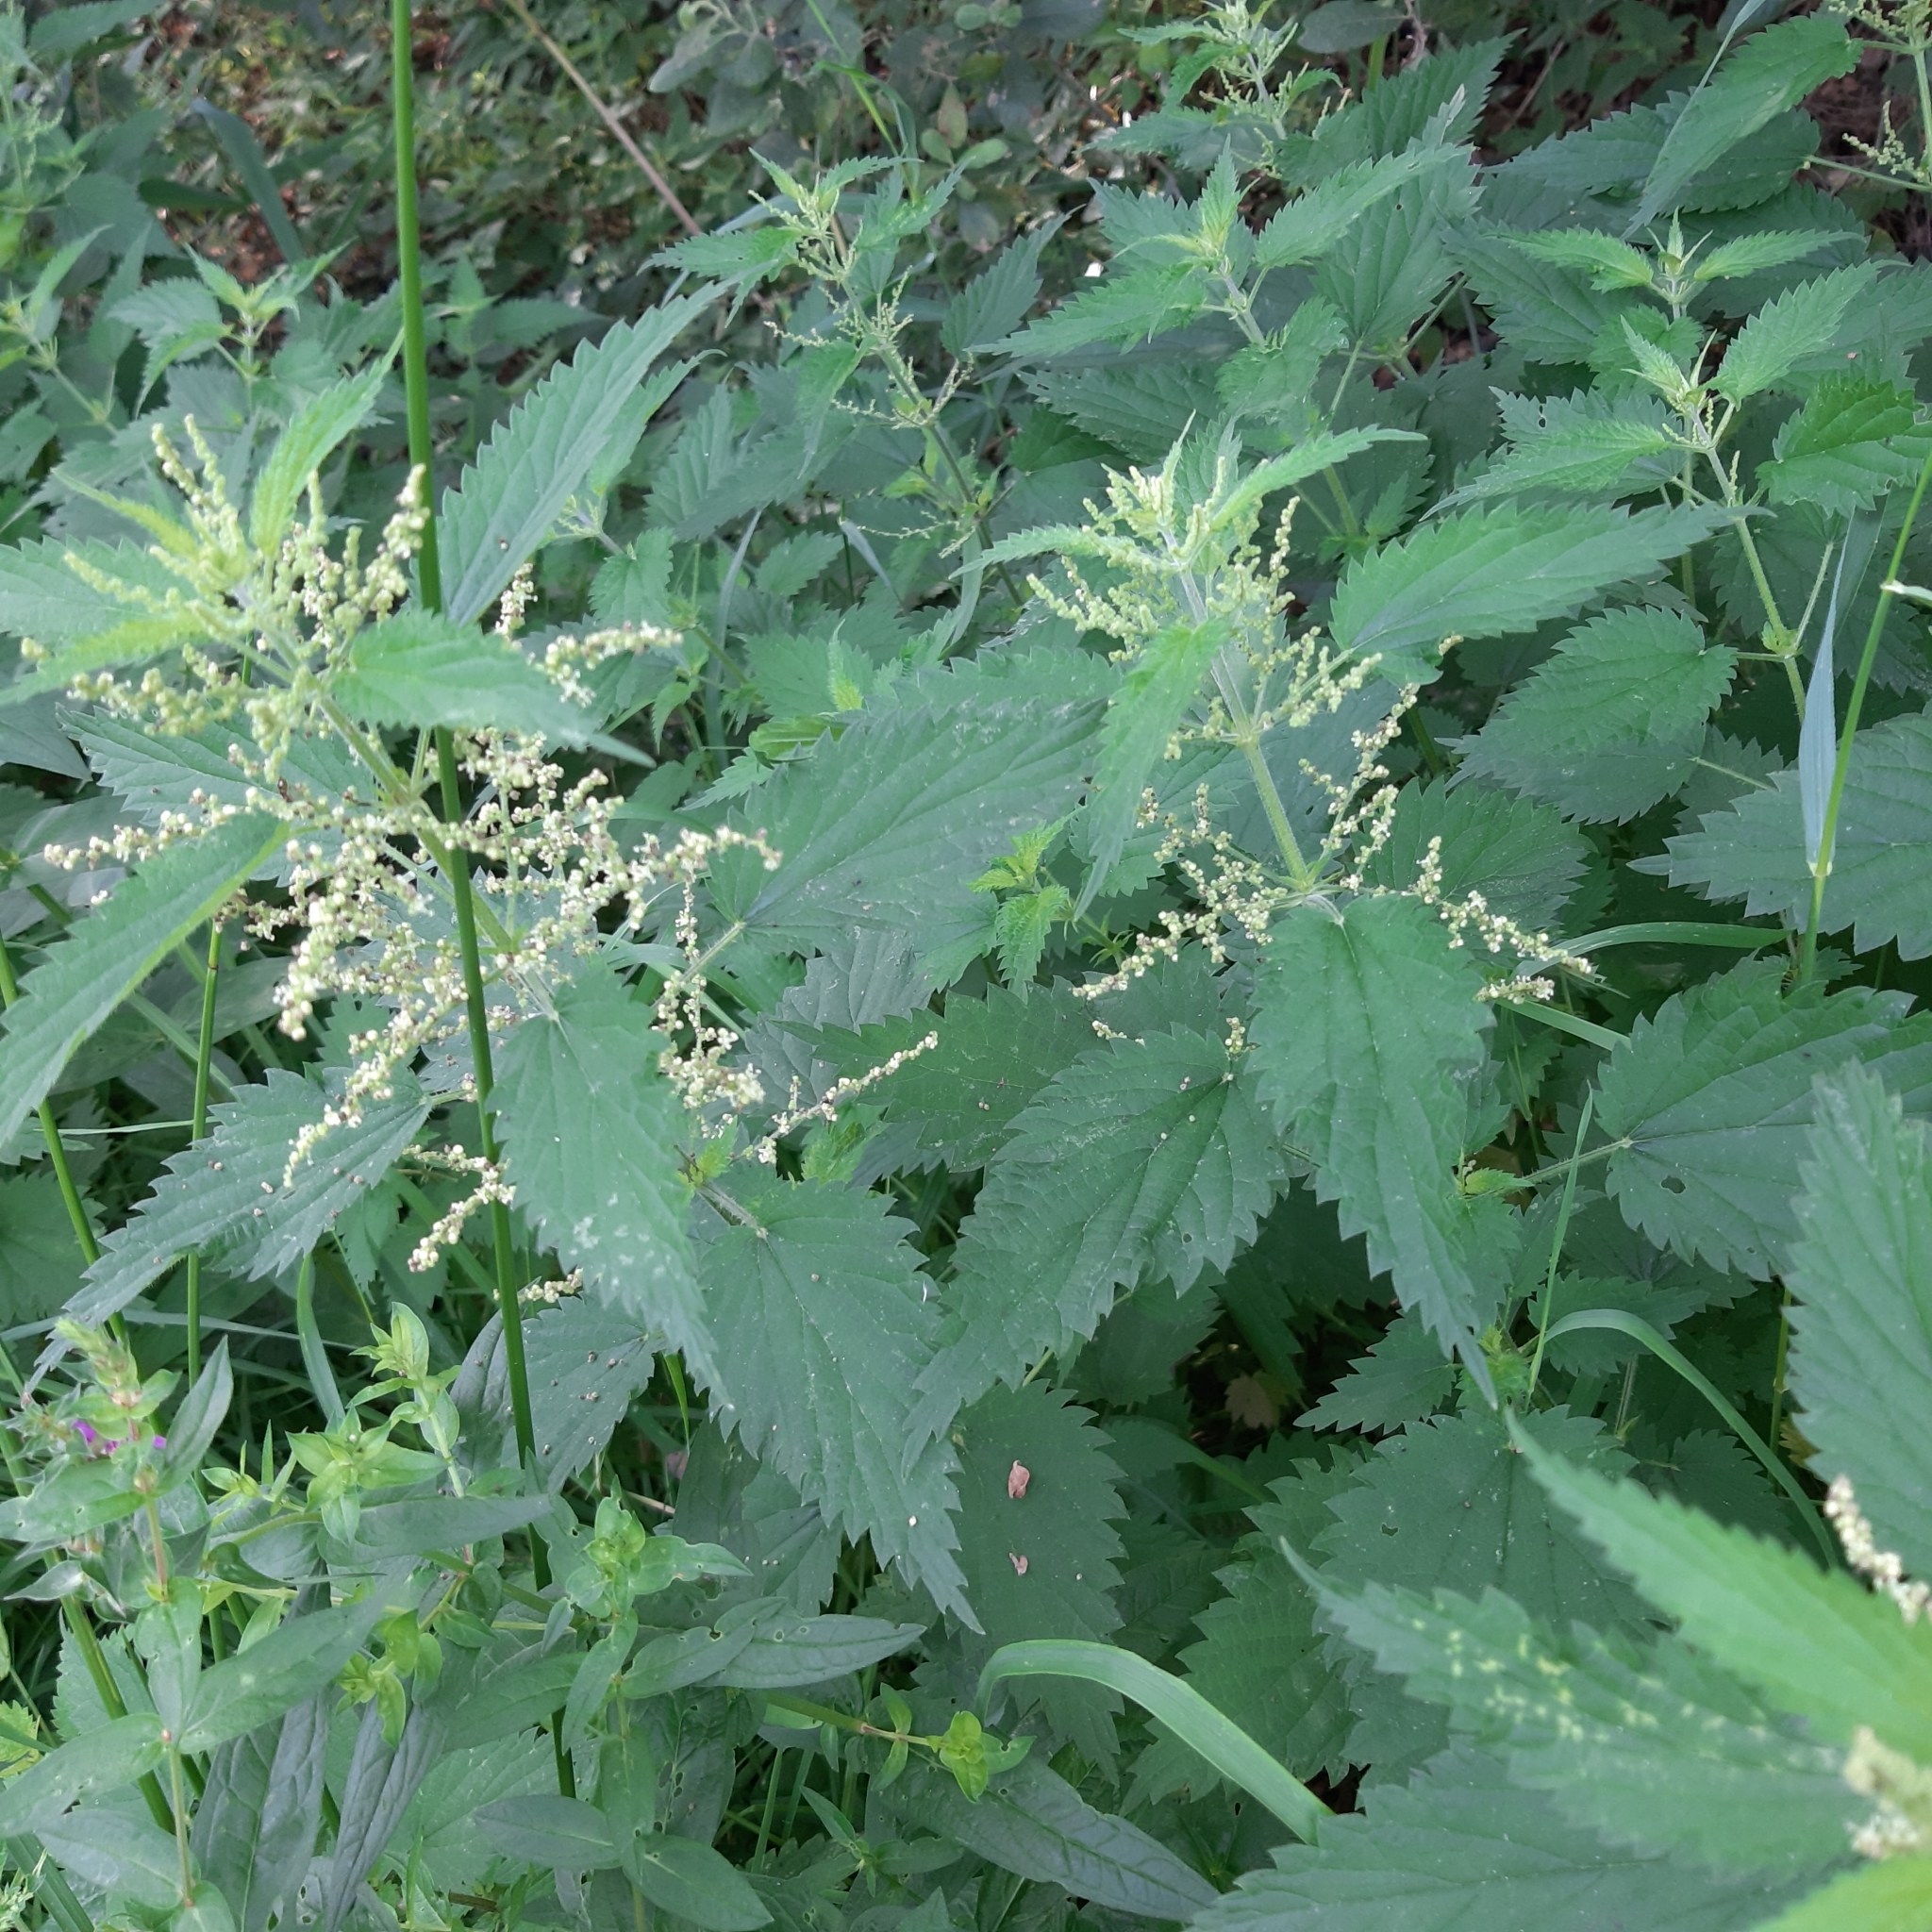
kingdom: Plantae
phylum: Tracheophyta
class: Magnoliopsida
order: Rosales
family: Urticaceae
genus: Urtica
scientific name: Urtica dioica
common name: Common nettle
